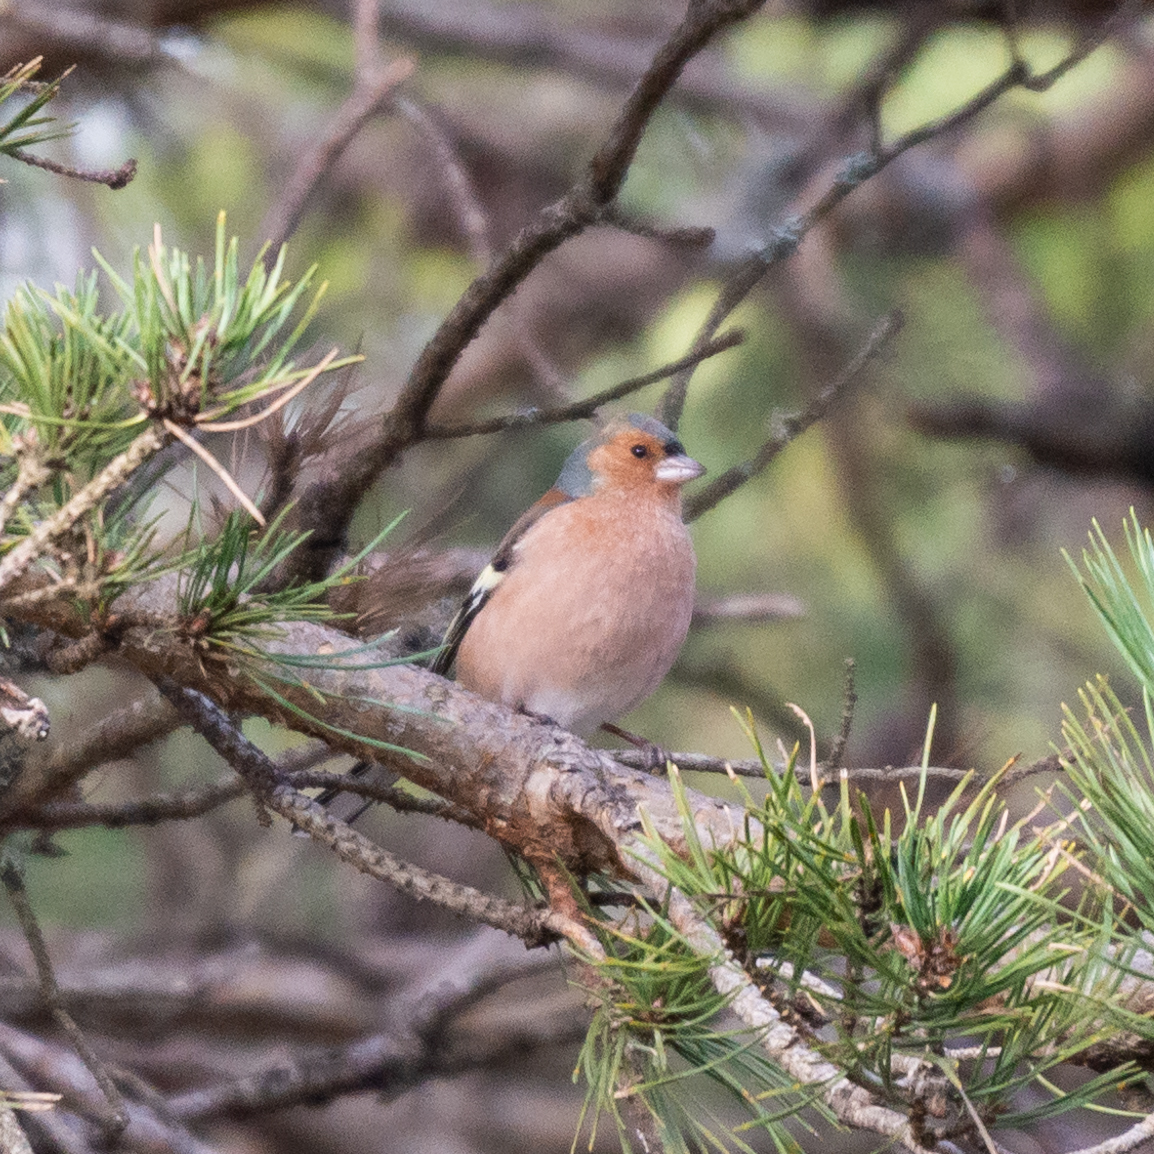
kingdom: Animalia
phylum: Chordata
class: Aves
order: Passeriformes
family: Fringillidae
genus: Fringilla
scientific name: Fringilla coelebs
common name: Common chaffinch
